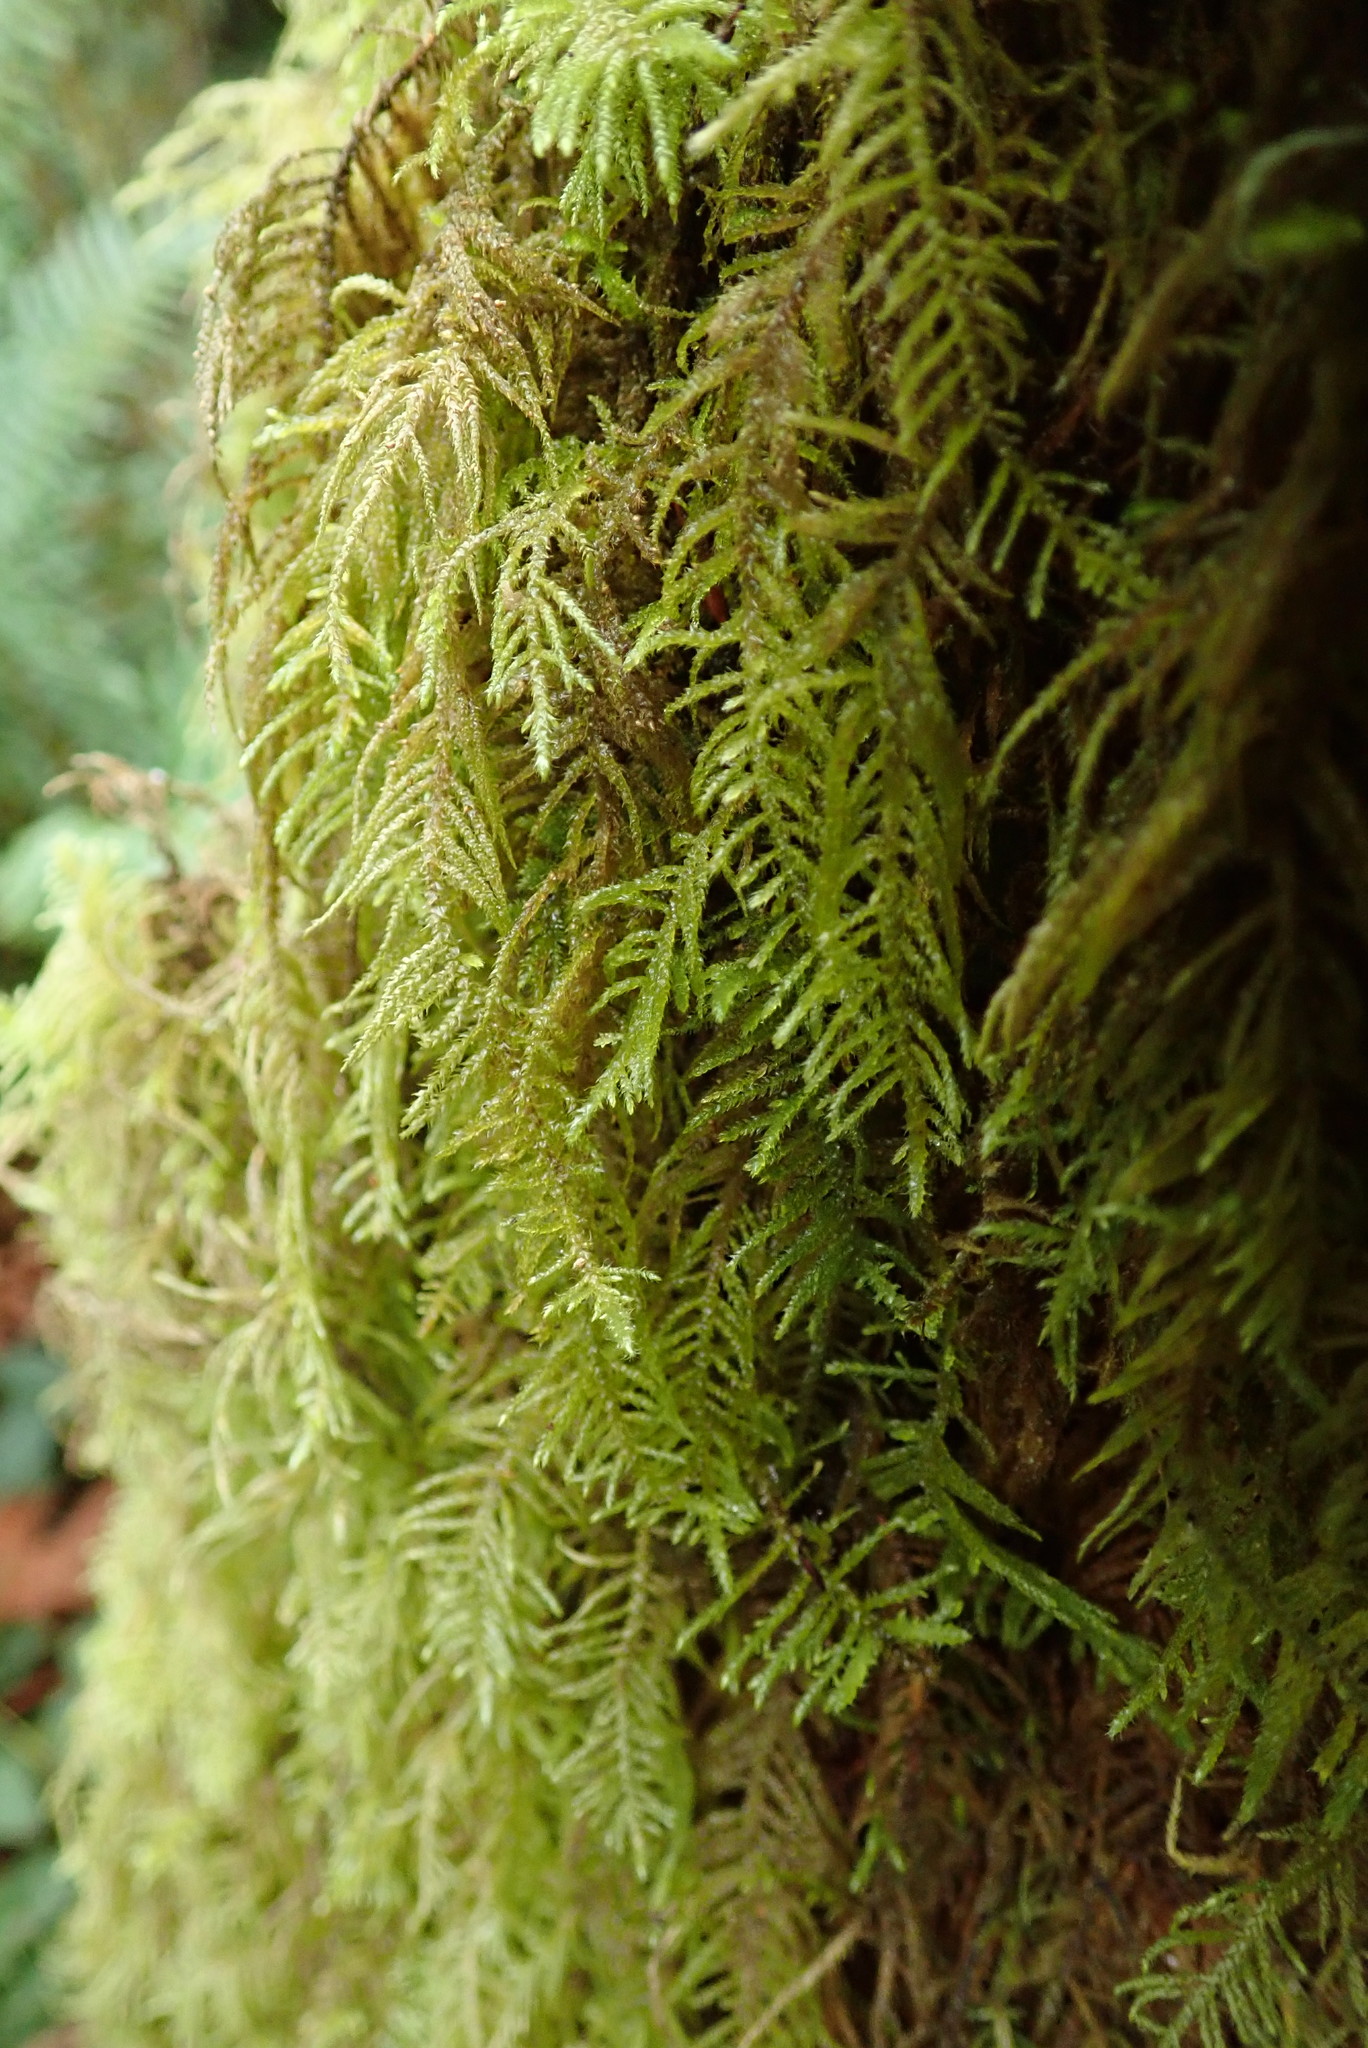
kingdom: Plantae
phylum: Bryophyta
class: Bryopsida
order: Hypnales
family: Brachytheciaceae
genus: Kindbergia
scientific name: Kindbergia oregana
